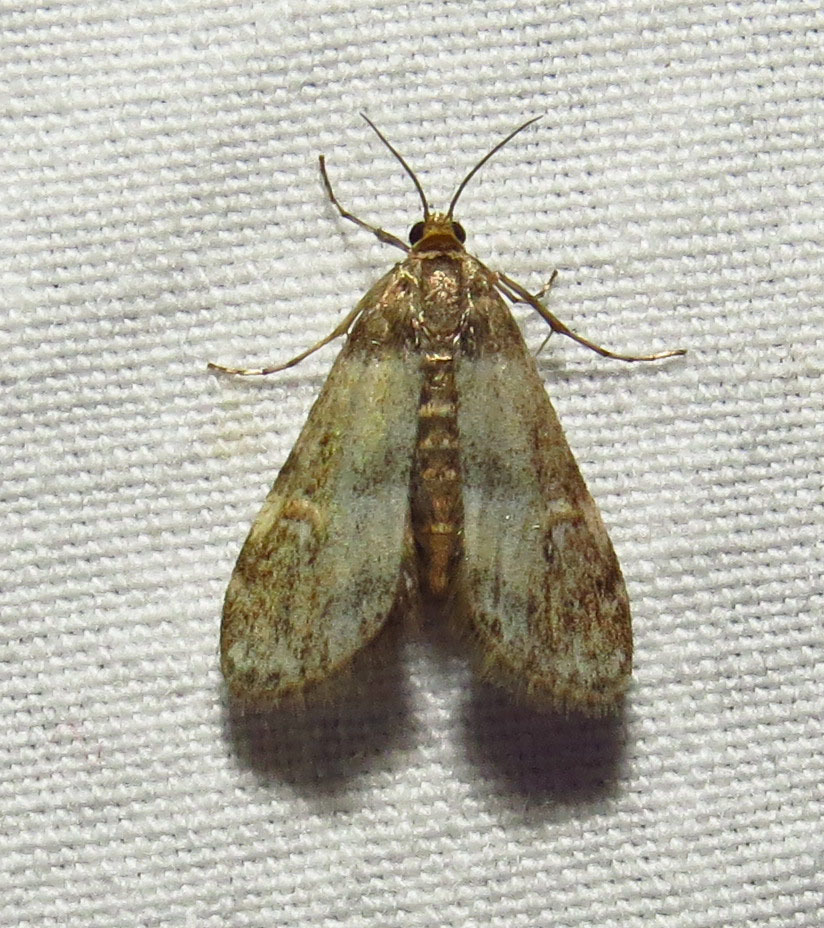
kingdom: Animalia
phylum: Arthropoda
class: Insecta
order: Lepidoptera
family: Crambidae
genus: Elophila
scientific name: Elophila obliteralis
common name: Waterlily leafcutter moth
